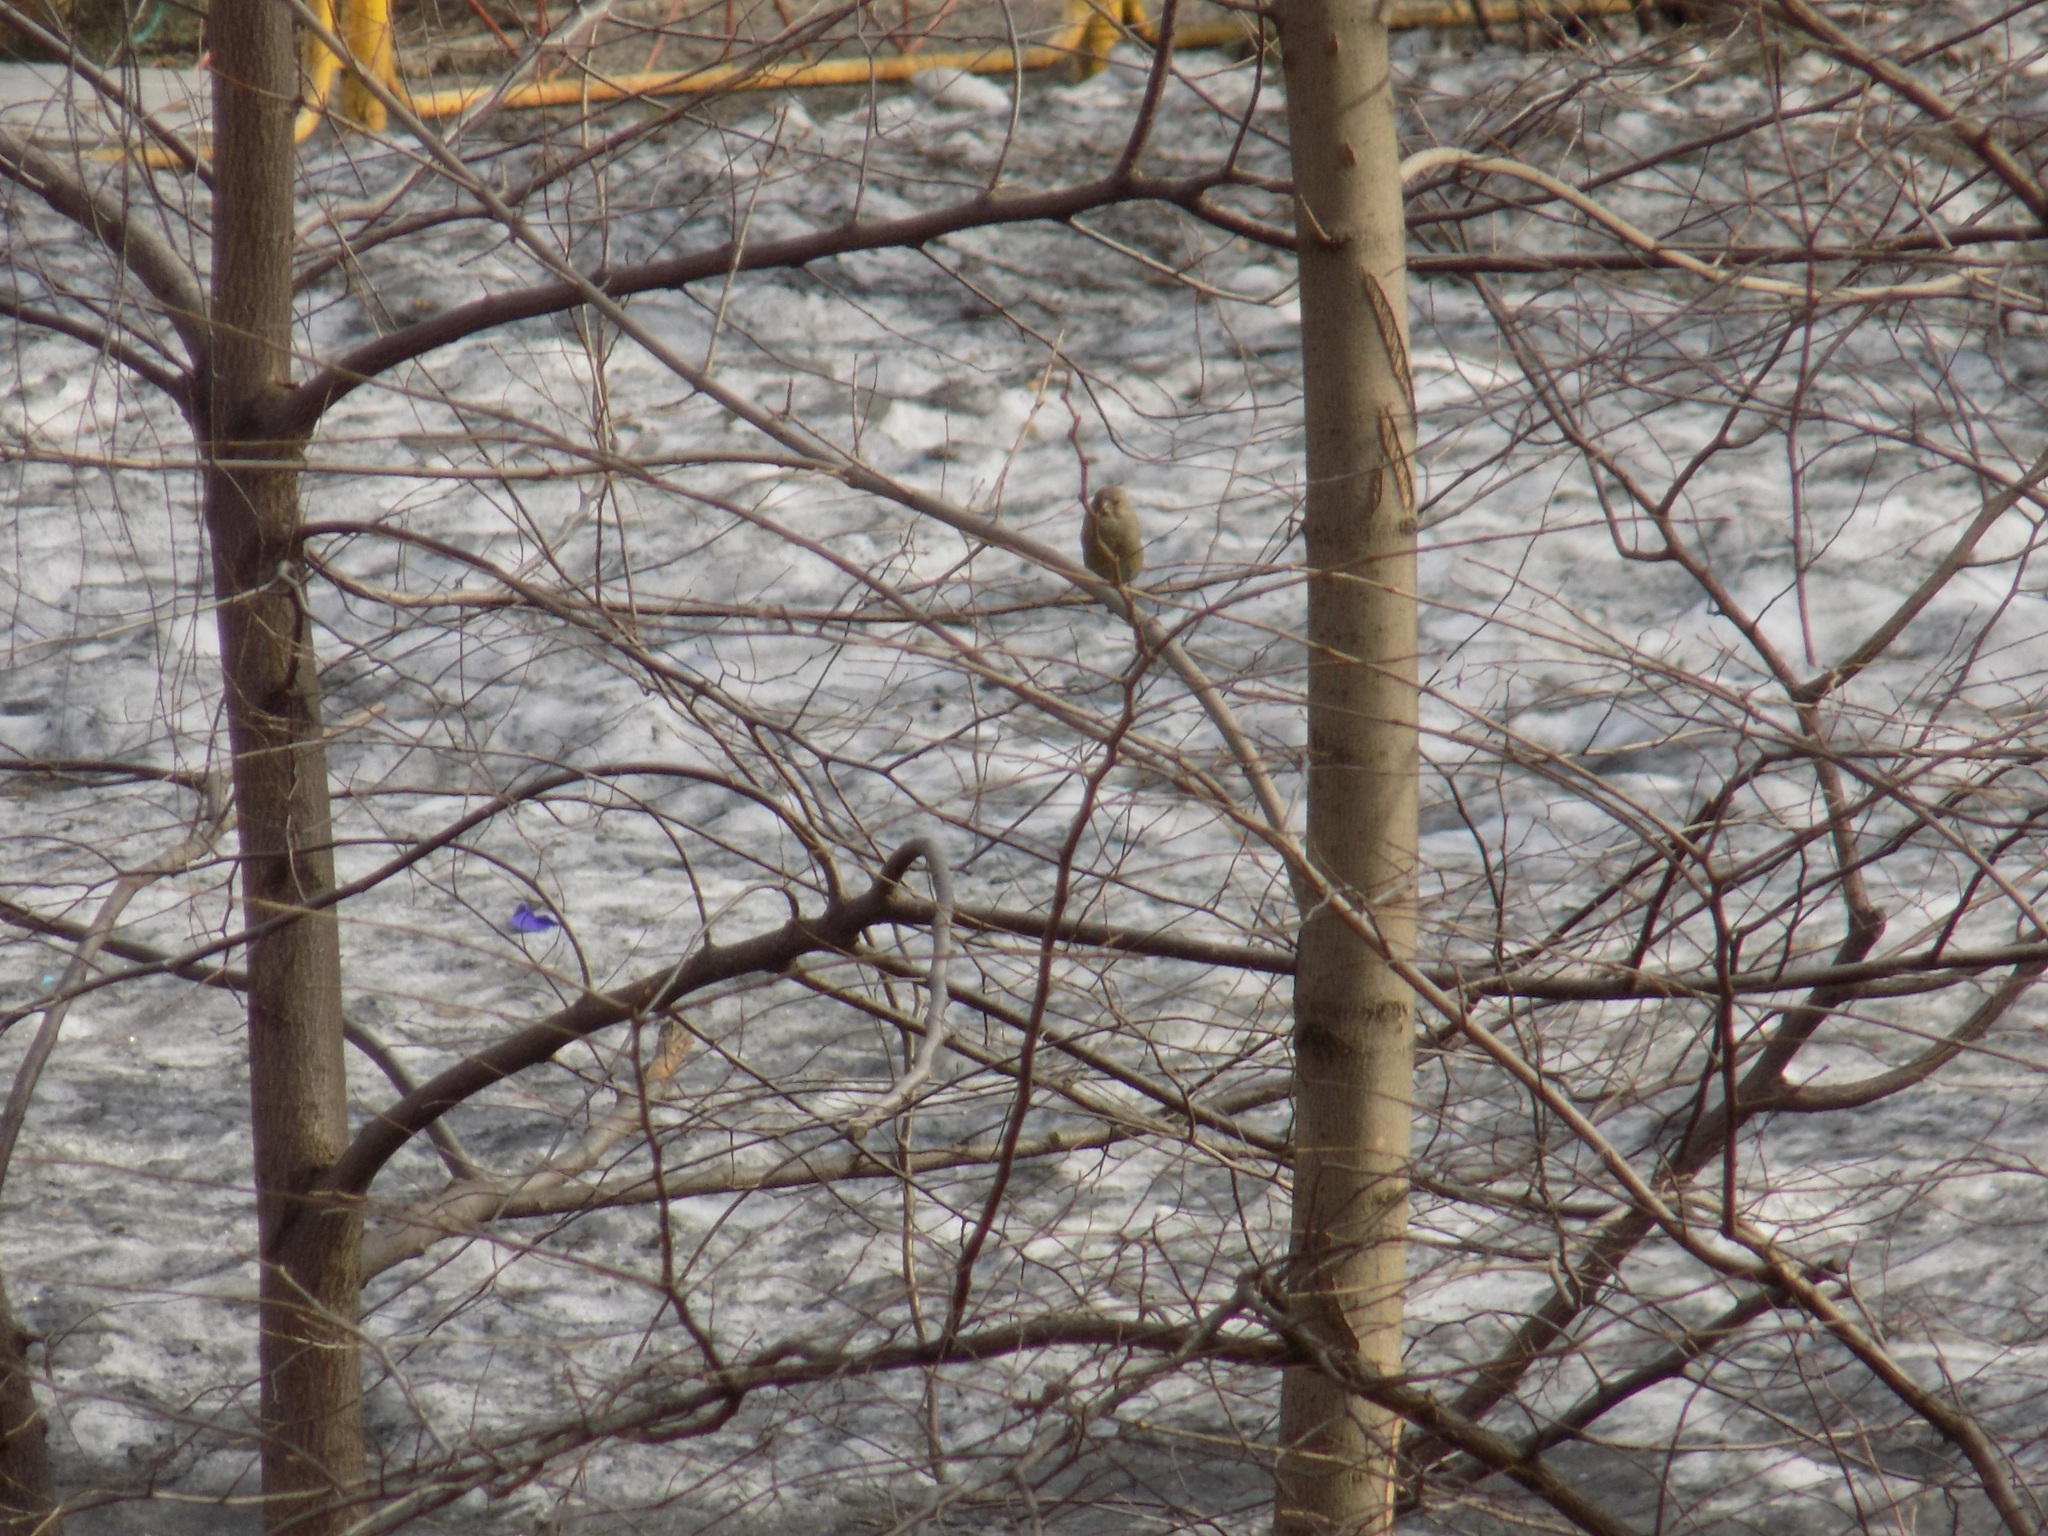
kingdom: Plantae
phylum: Tracheophyta
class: Liliopsida
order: Poales
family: Poaceae
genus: Chloris
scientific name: Chloris chloris
